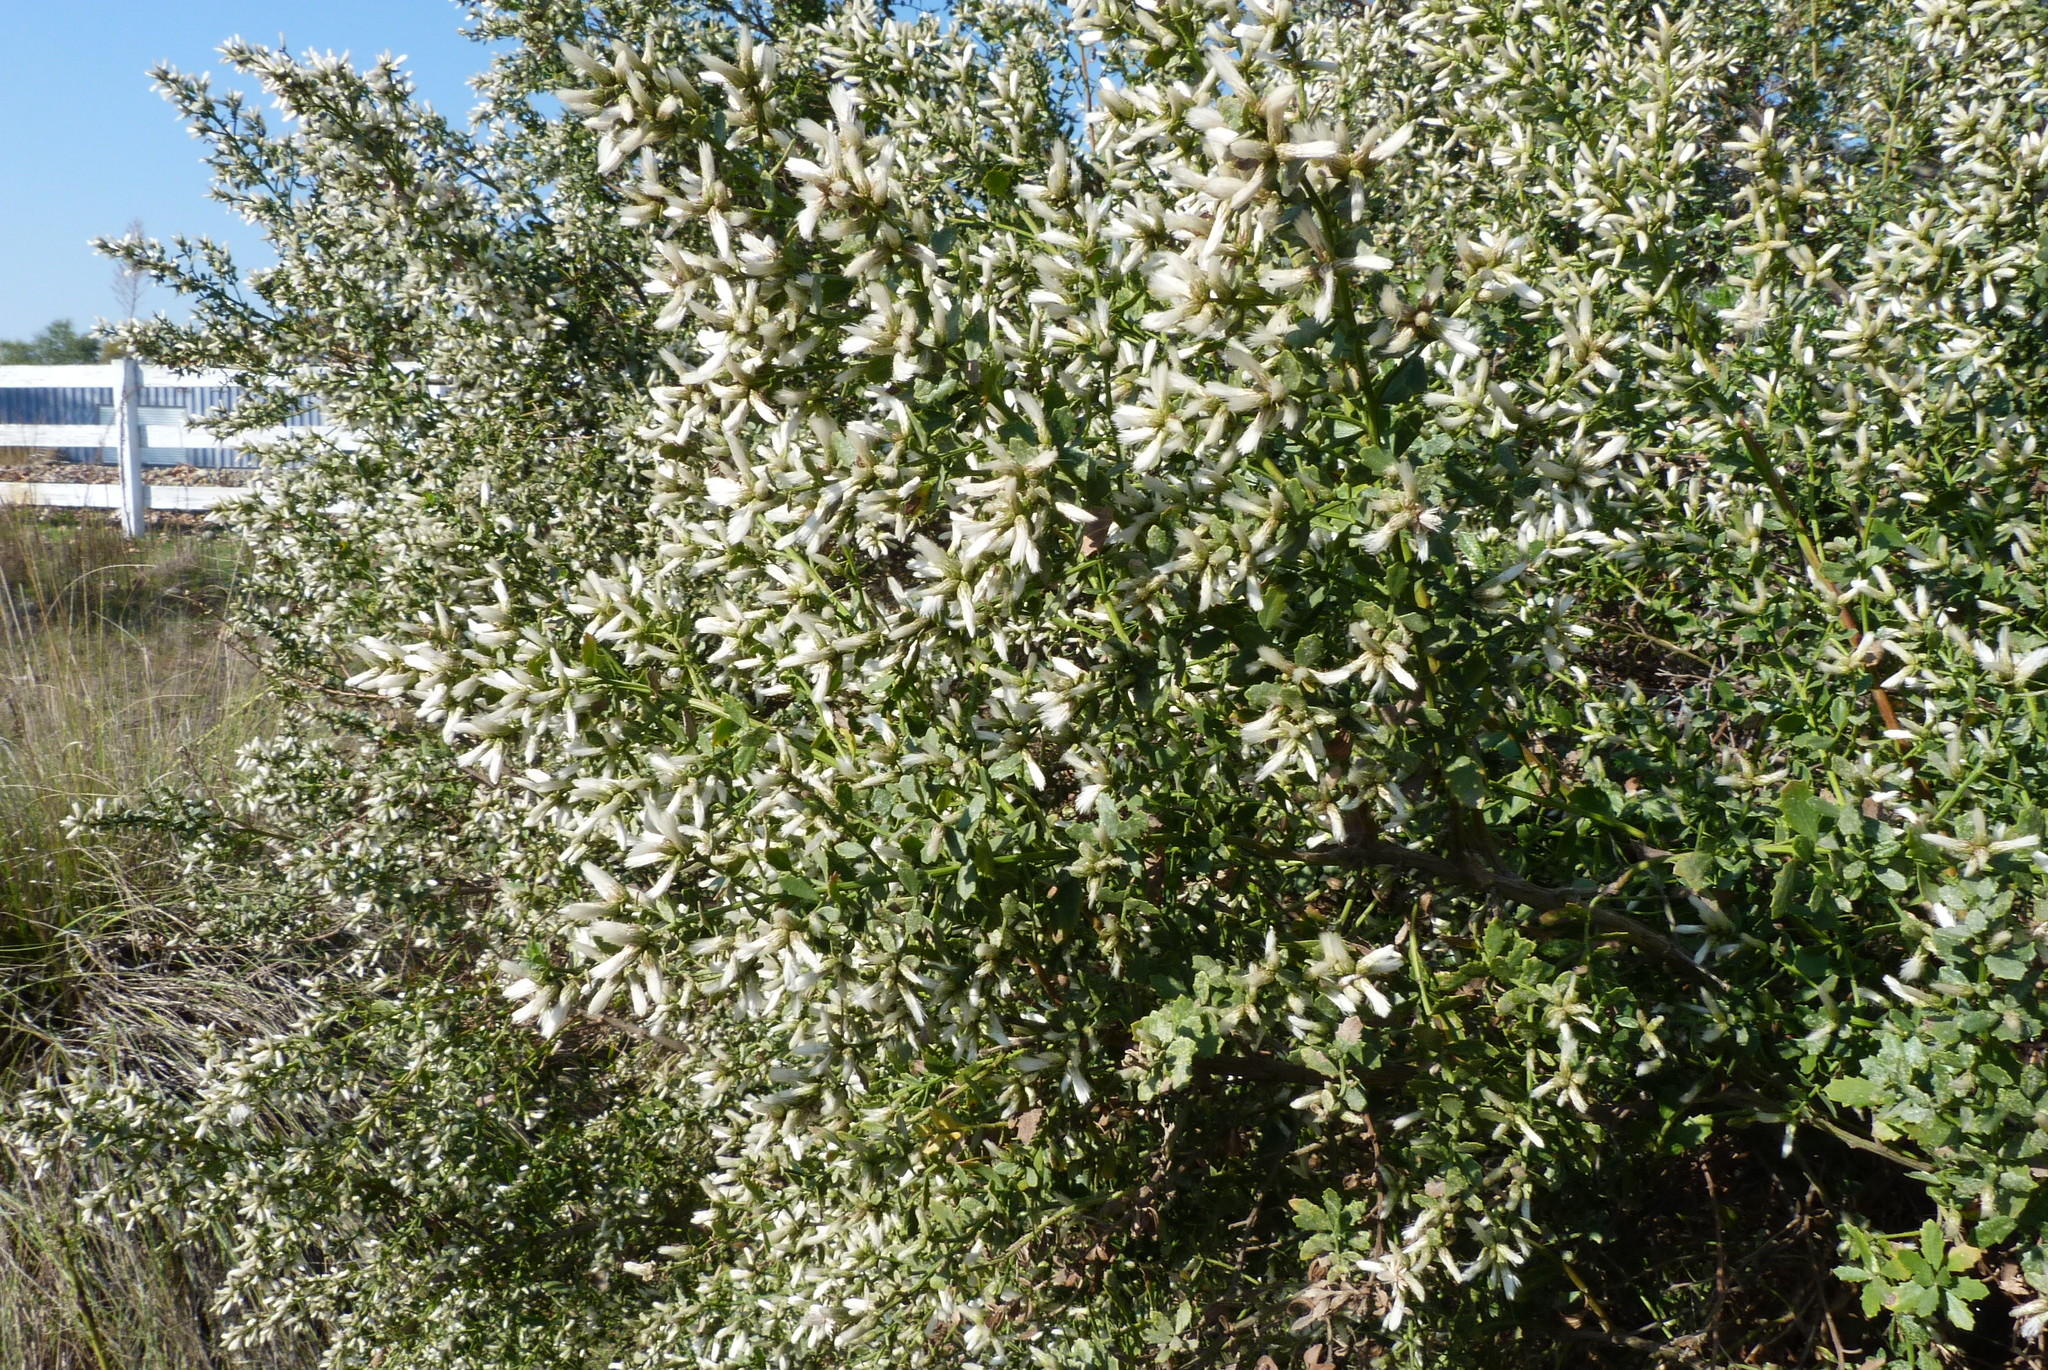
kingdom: Plantae
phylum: Tracheophyta
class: Magnoliopsida
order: Asterales
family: Asteraceae
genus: Baccharis
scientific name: Baccharis pilularis
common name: Coyotebrush
